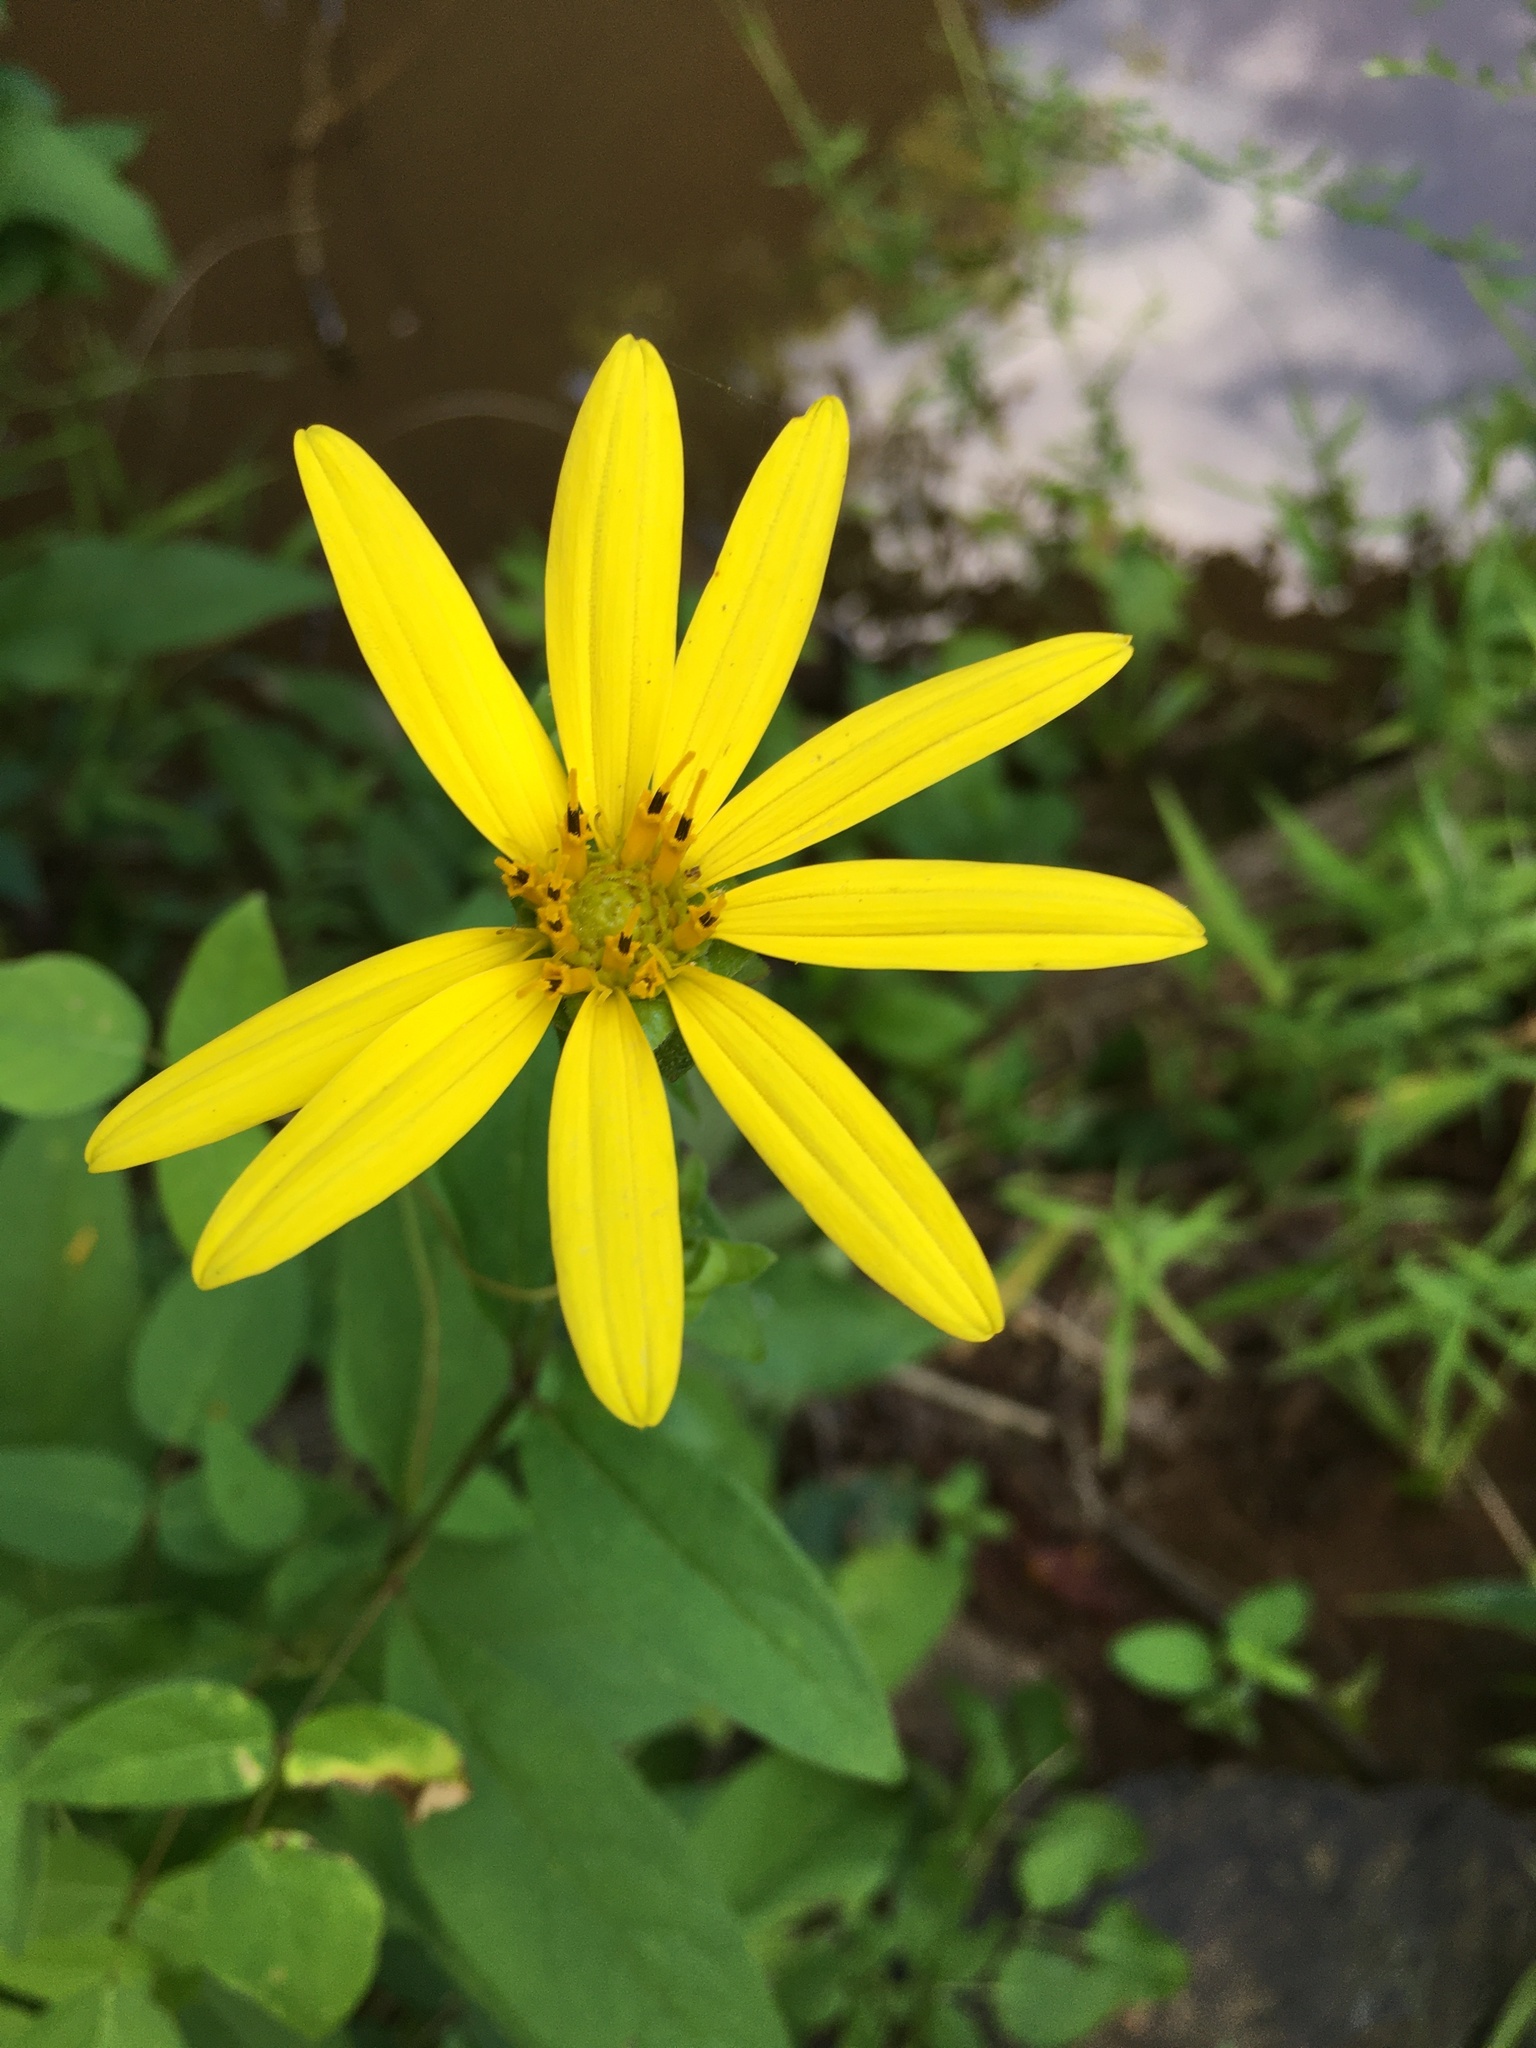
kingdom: Plantae
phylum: Tracheophyta
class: Magnoliopsida
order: Asterales
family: Asteraceae
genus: Silphium
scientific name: Silphium asteriscus
